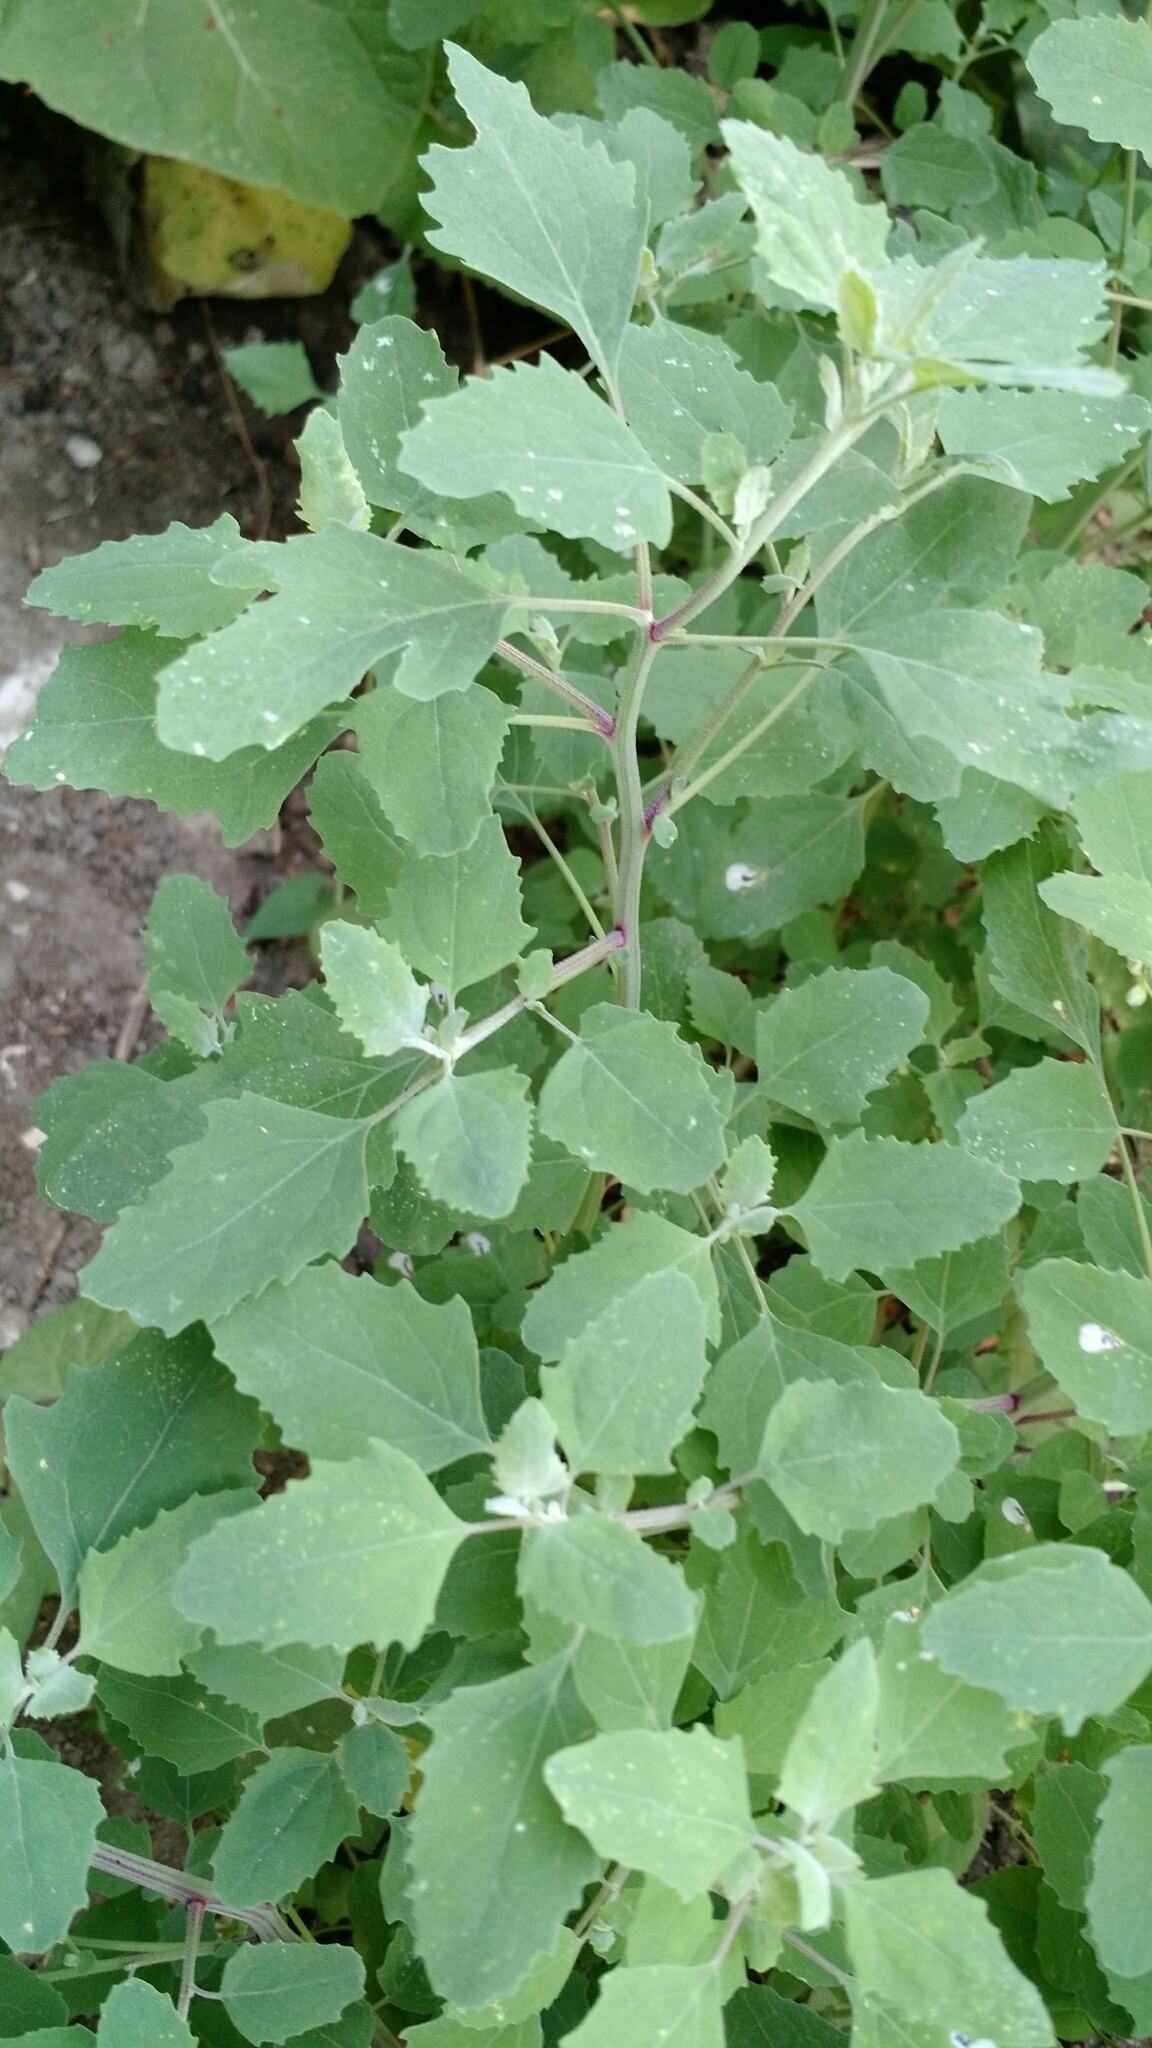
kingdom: Plantae
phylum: Tracheophyta
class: Magnoliopsida
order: Caryophyllales
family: Amaranthaceae
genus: Chenopodium
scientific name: Chenopodium album
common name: Fat-hen
